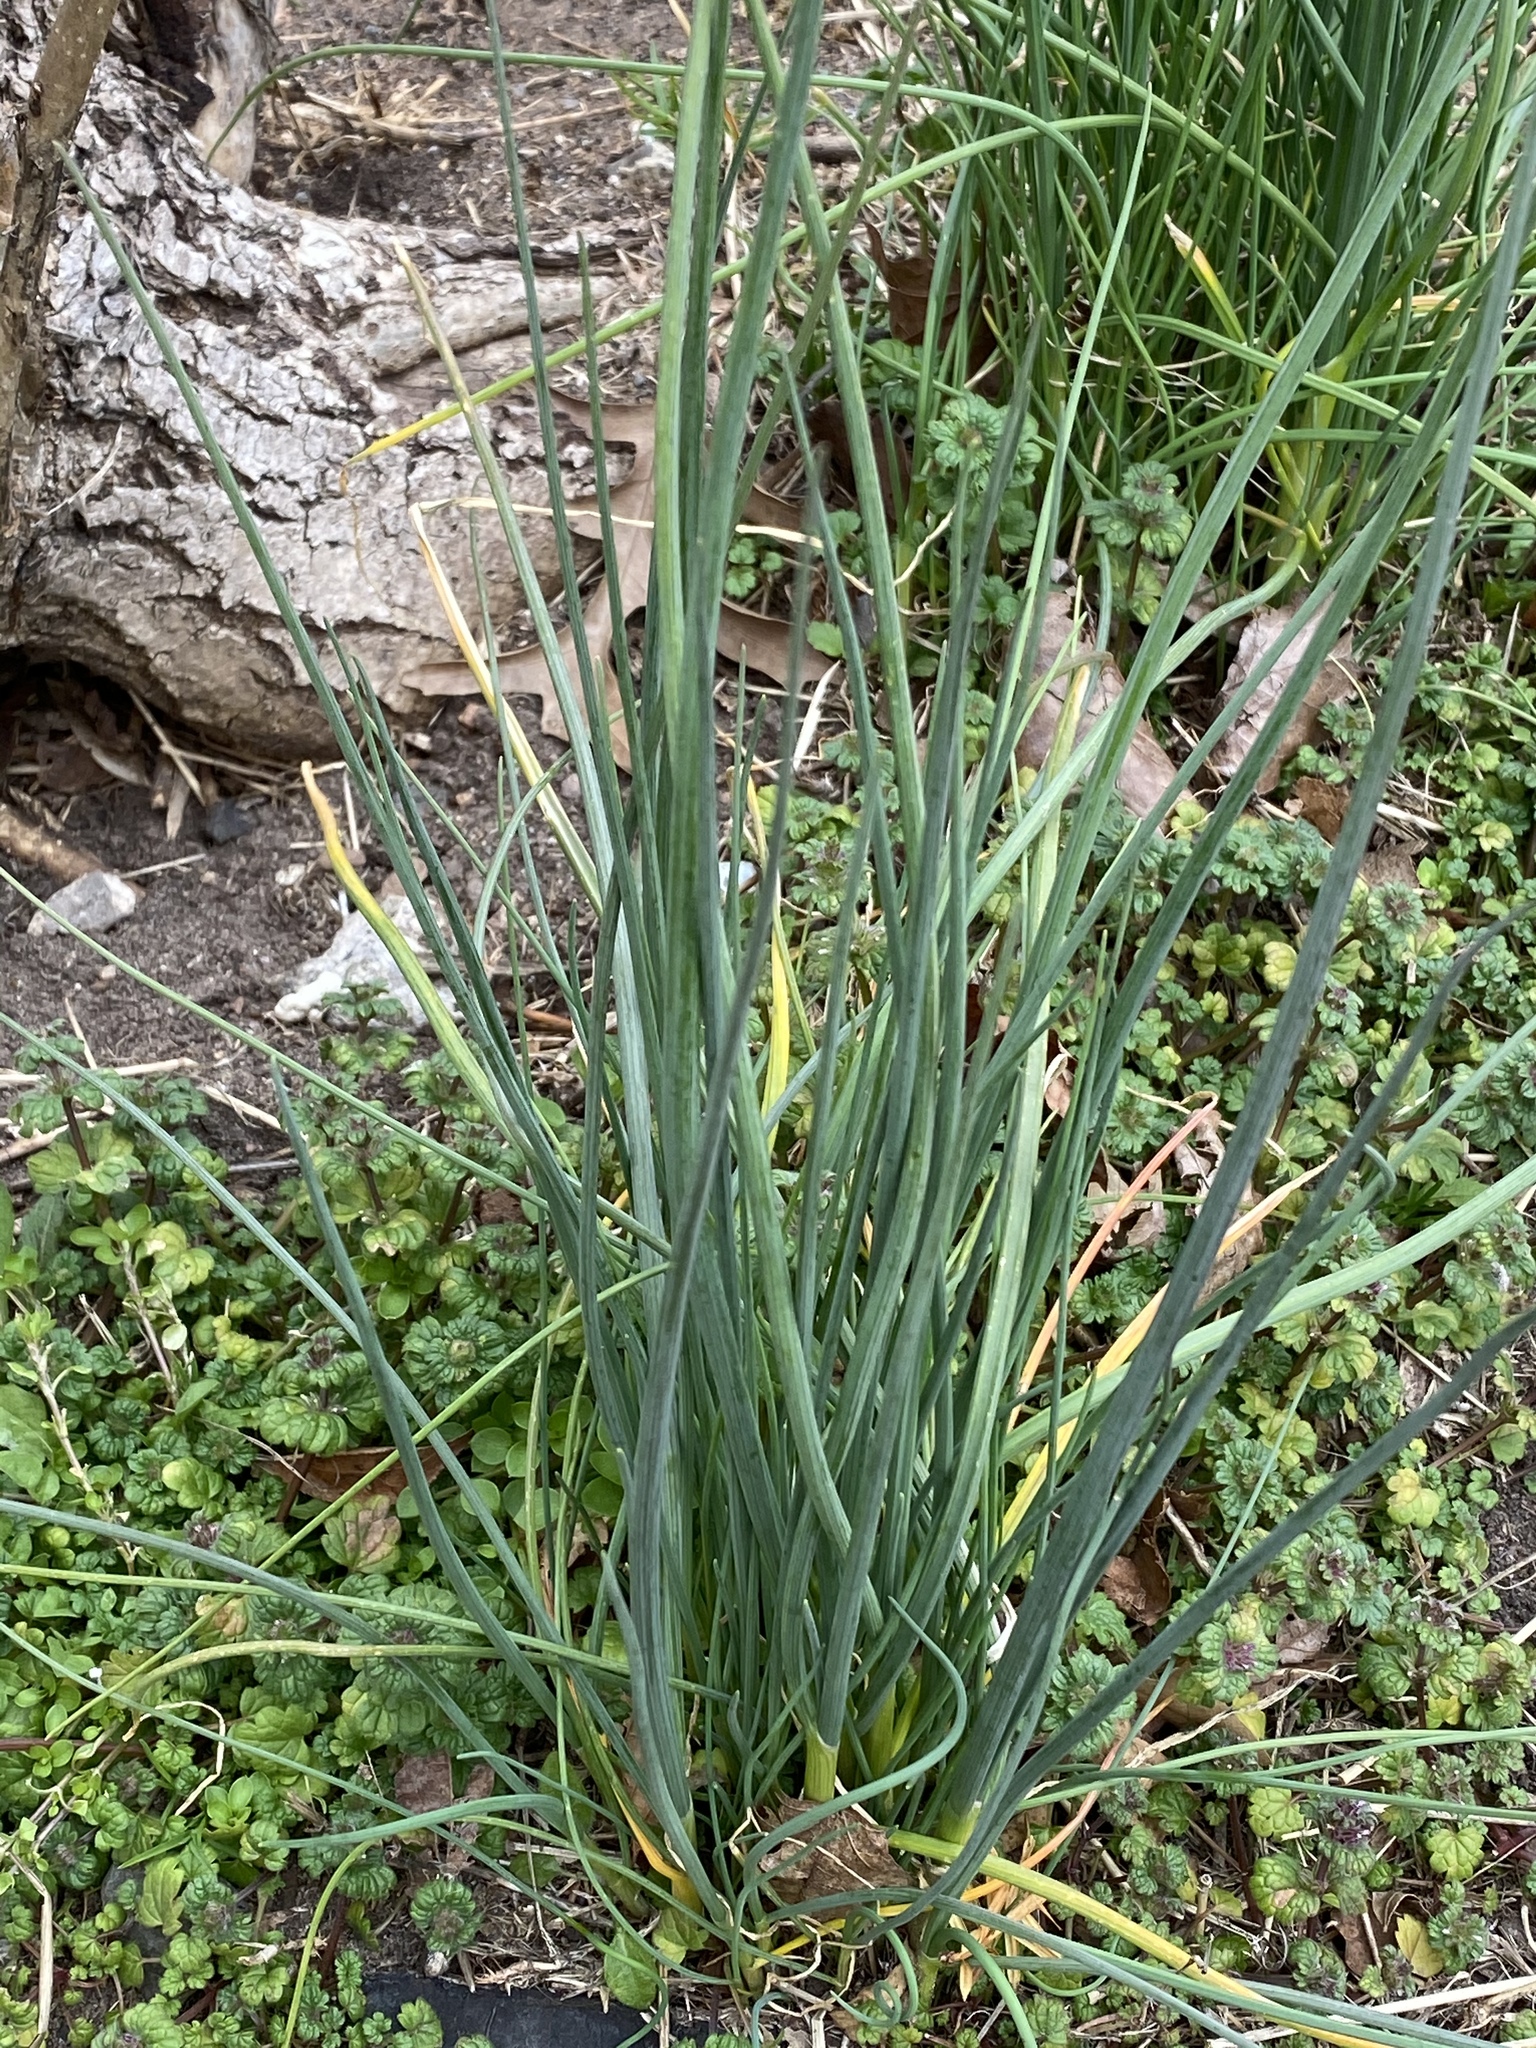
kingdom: Plantae
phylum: Tracheophyta
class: Liliopsida
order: Asparagales
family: Amaryllidaceae
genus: Allium
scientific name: Allium vineale
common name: Crow garlic
